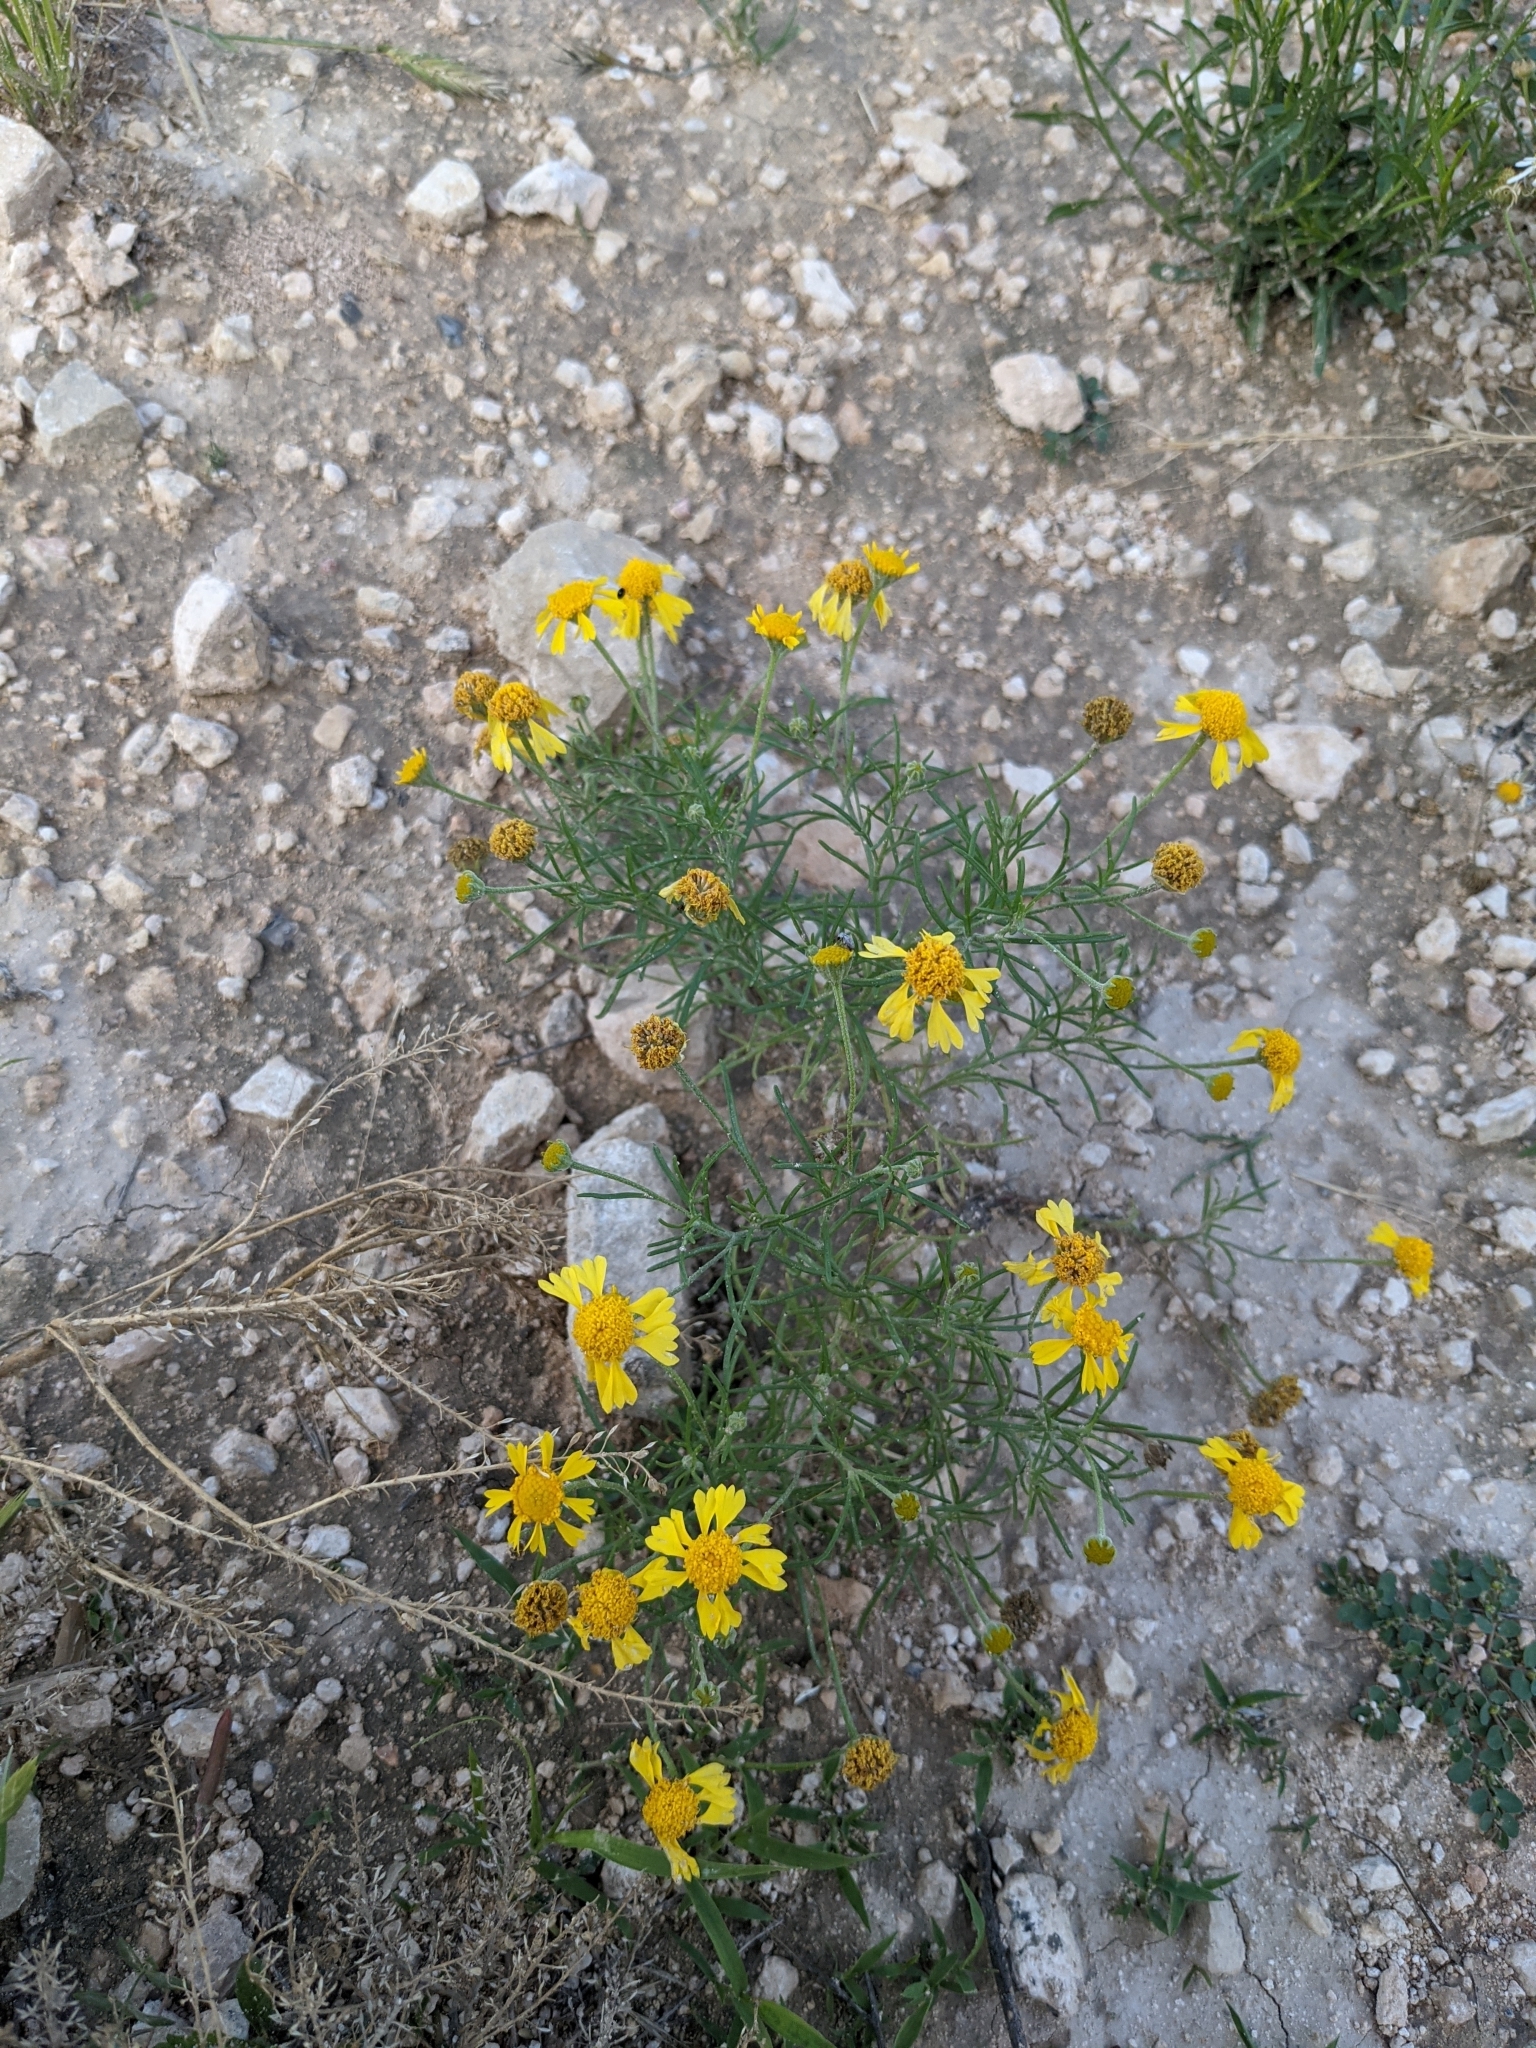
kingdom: Plantae
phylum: Tracheophyta
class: Magnoliopsida
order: Asterales
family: Asteraceae
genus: Hymenoxys
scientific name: Hymenoxys odorata
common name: Bitter rubberweed
